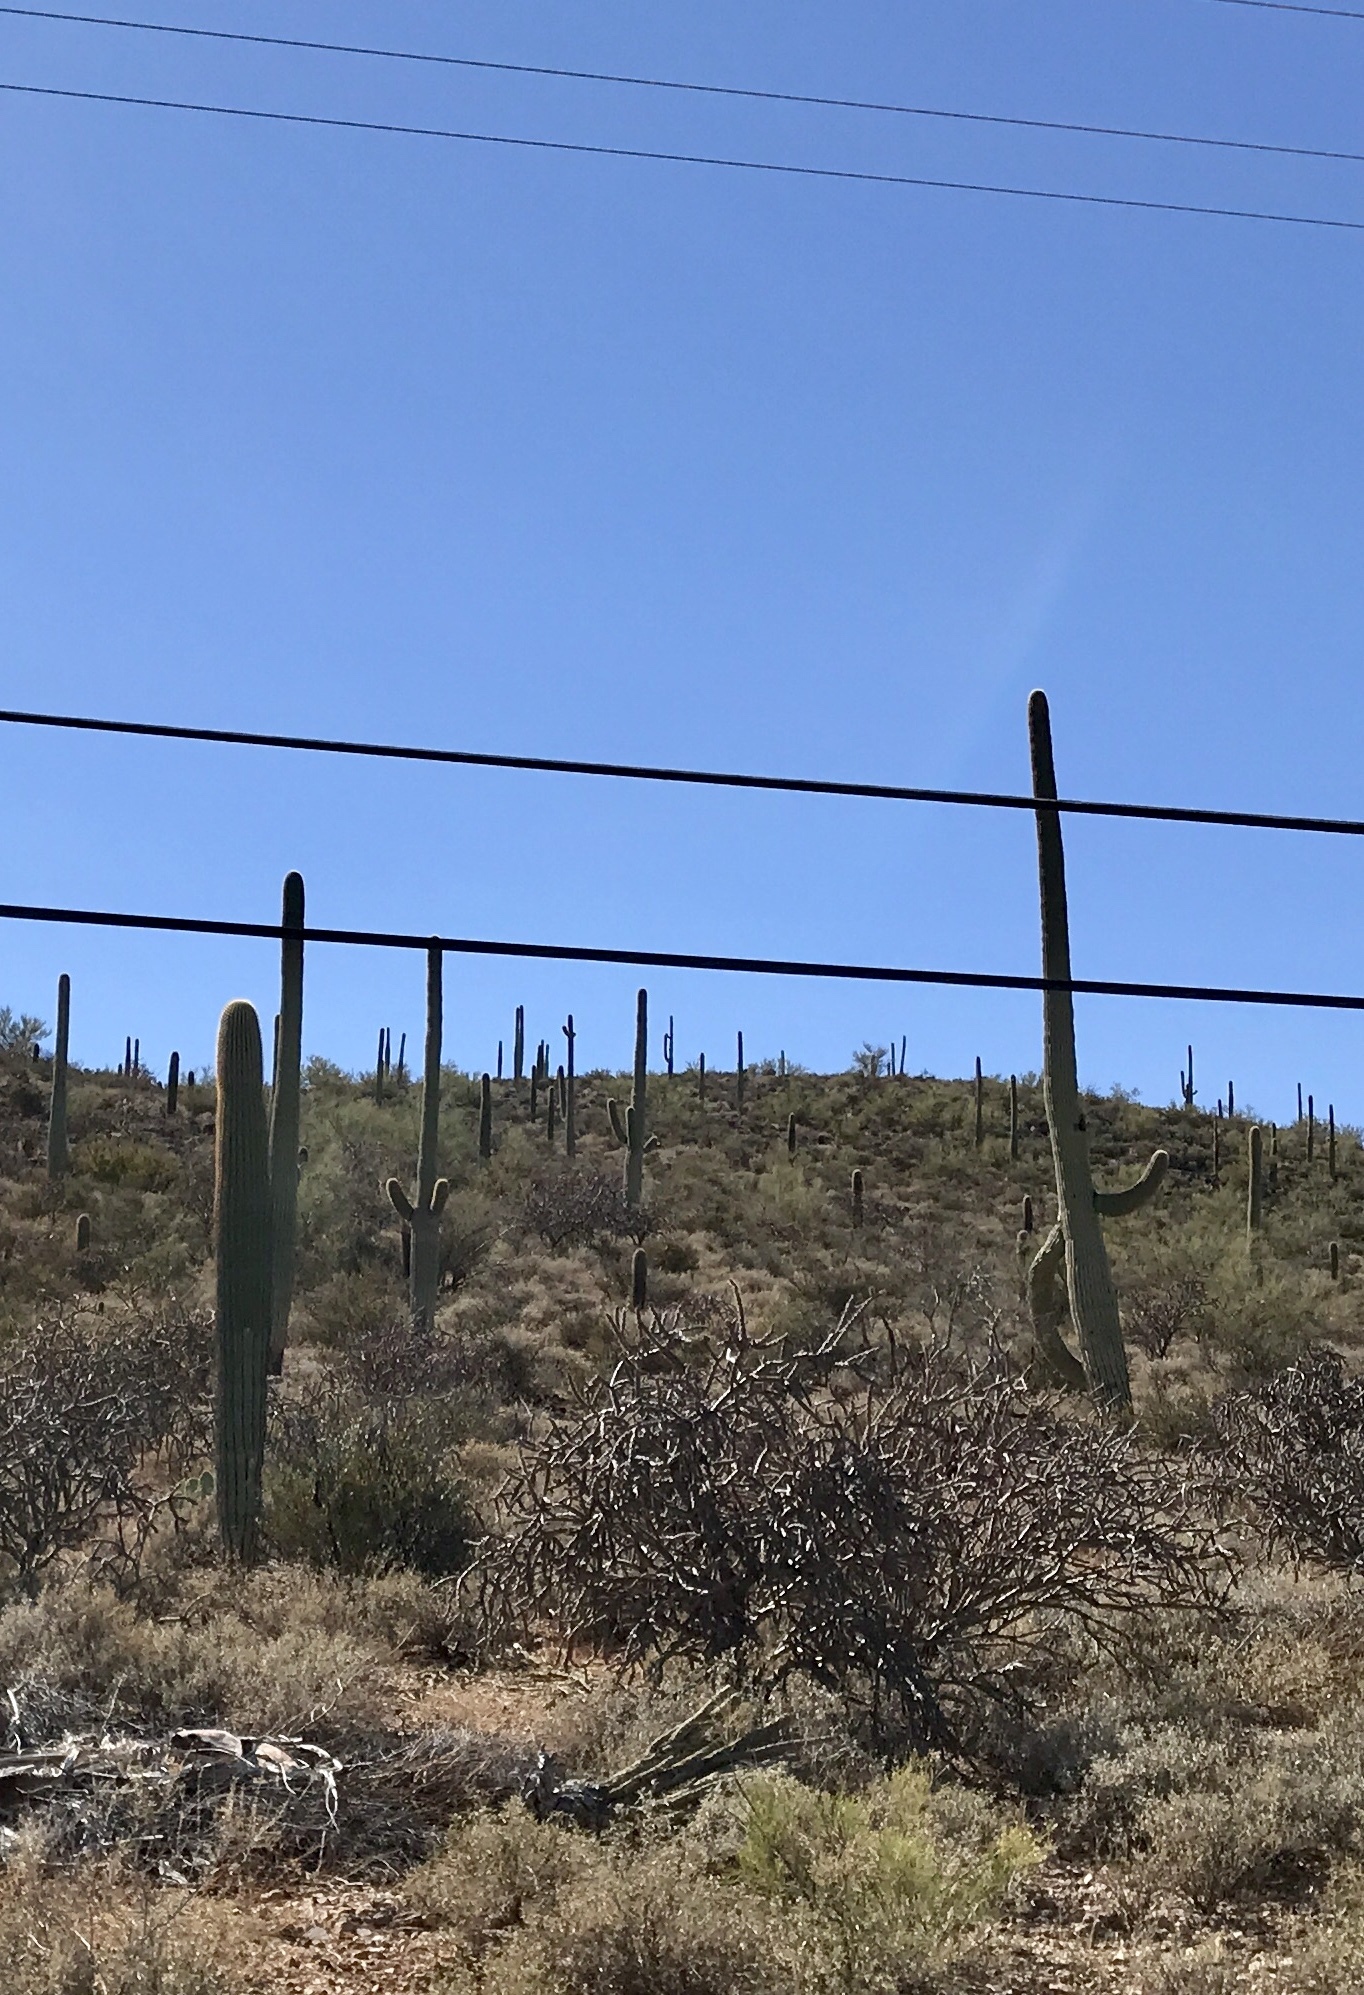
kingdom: Plantae
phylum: Tracheophyta
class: Magnoliopsida
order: Caryophyllales
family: Cactaceae
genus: Carnegiea
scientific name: Carnegiea gigantea
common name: Saguaro
